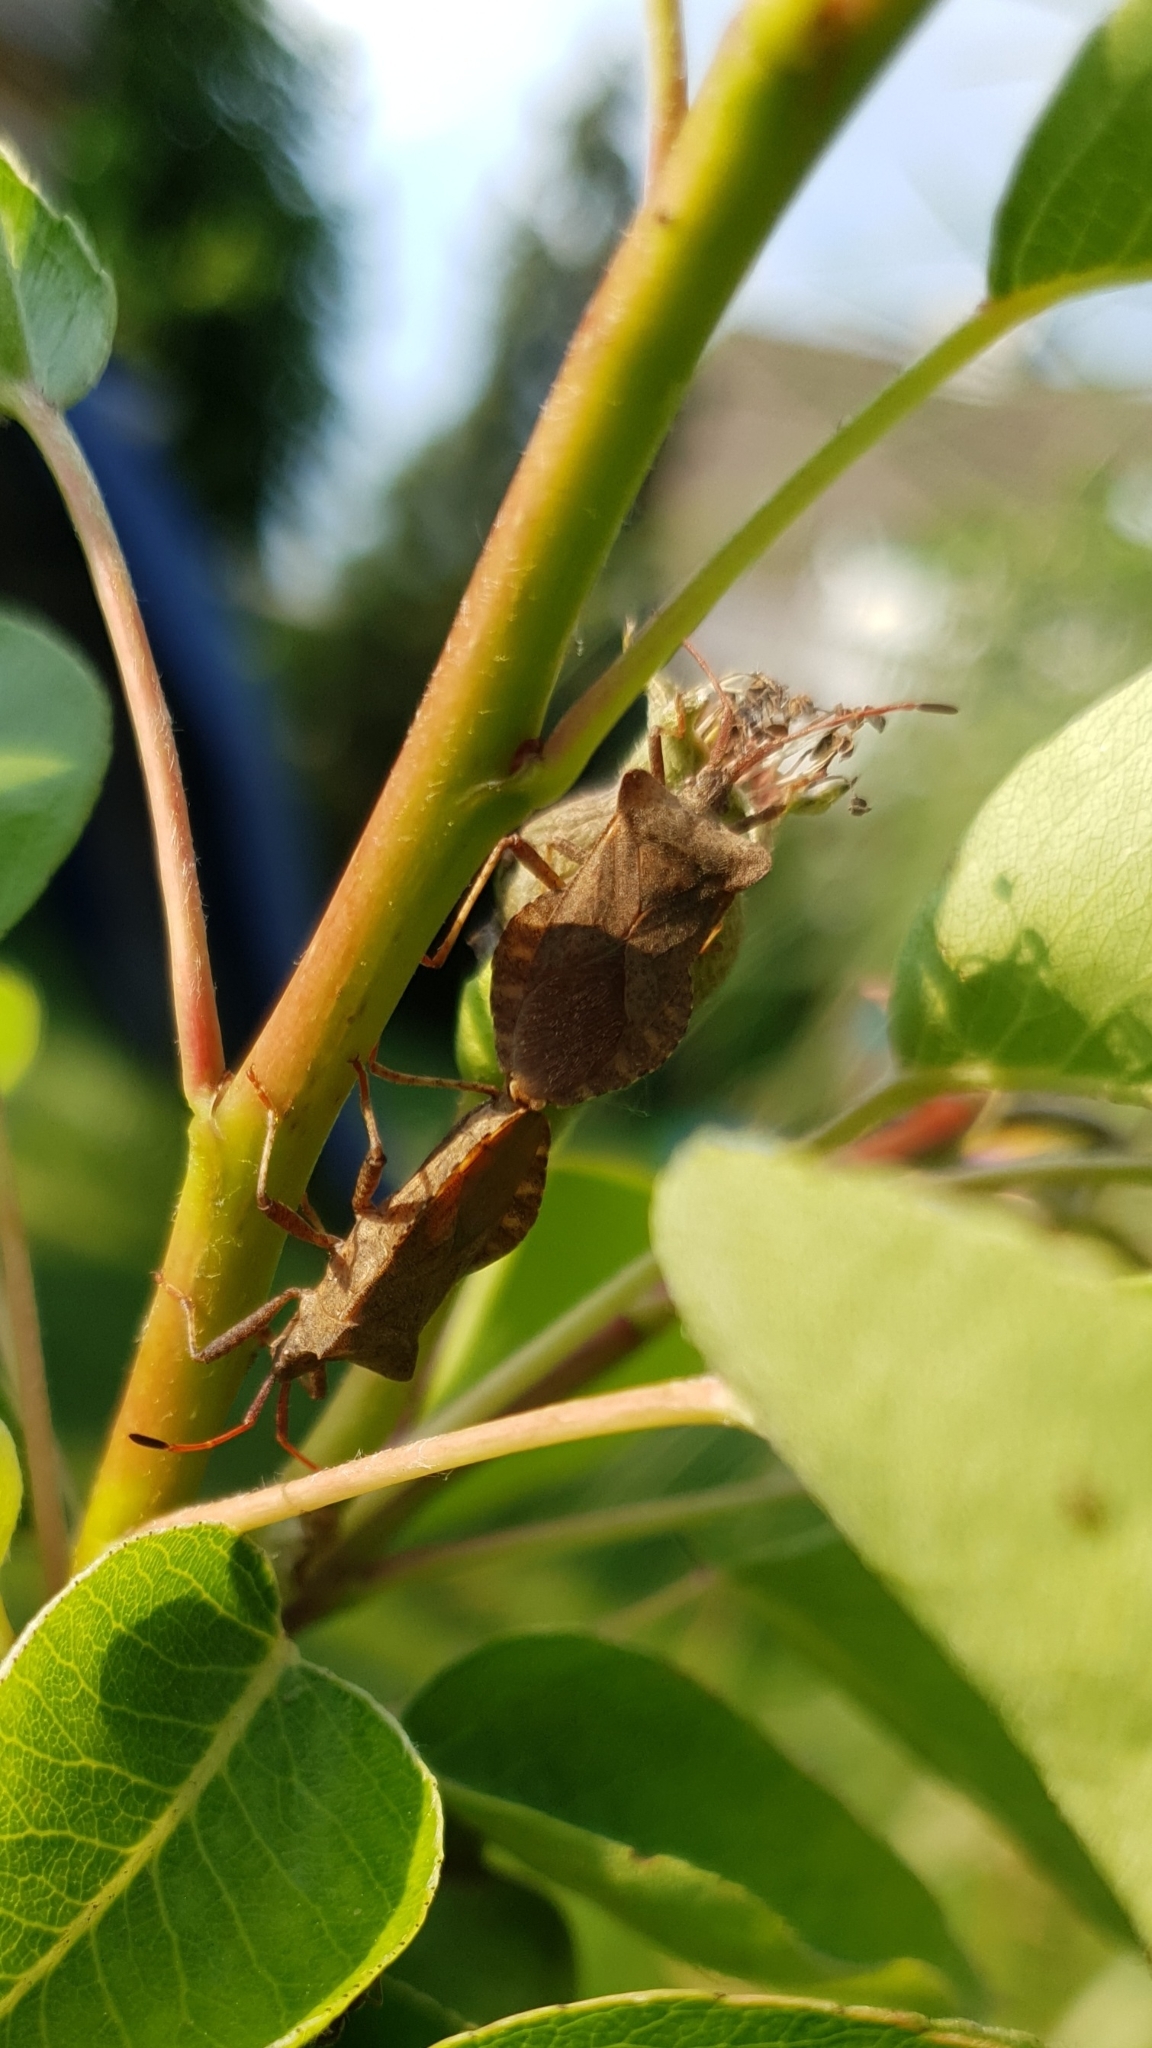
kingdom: Animalia
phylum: Arthropoda
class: Insecta
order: Hemiptera
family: Coreidae
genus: Coreus
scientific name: Coreus marginatus
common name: Dock bug
